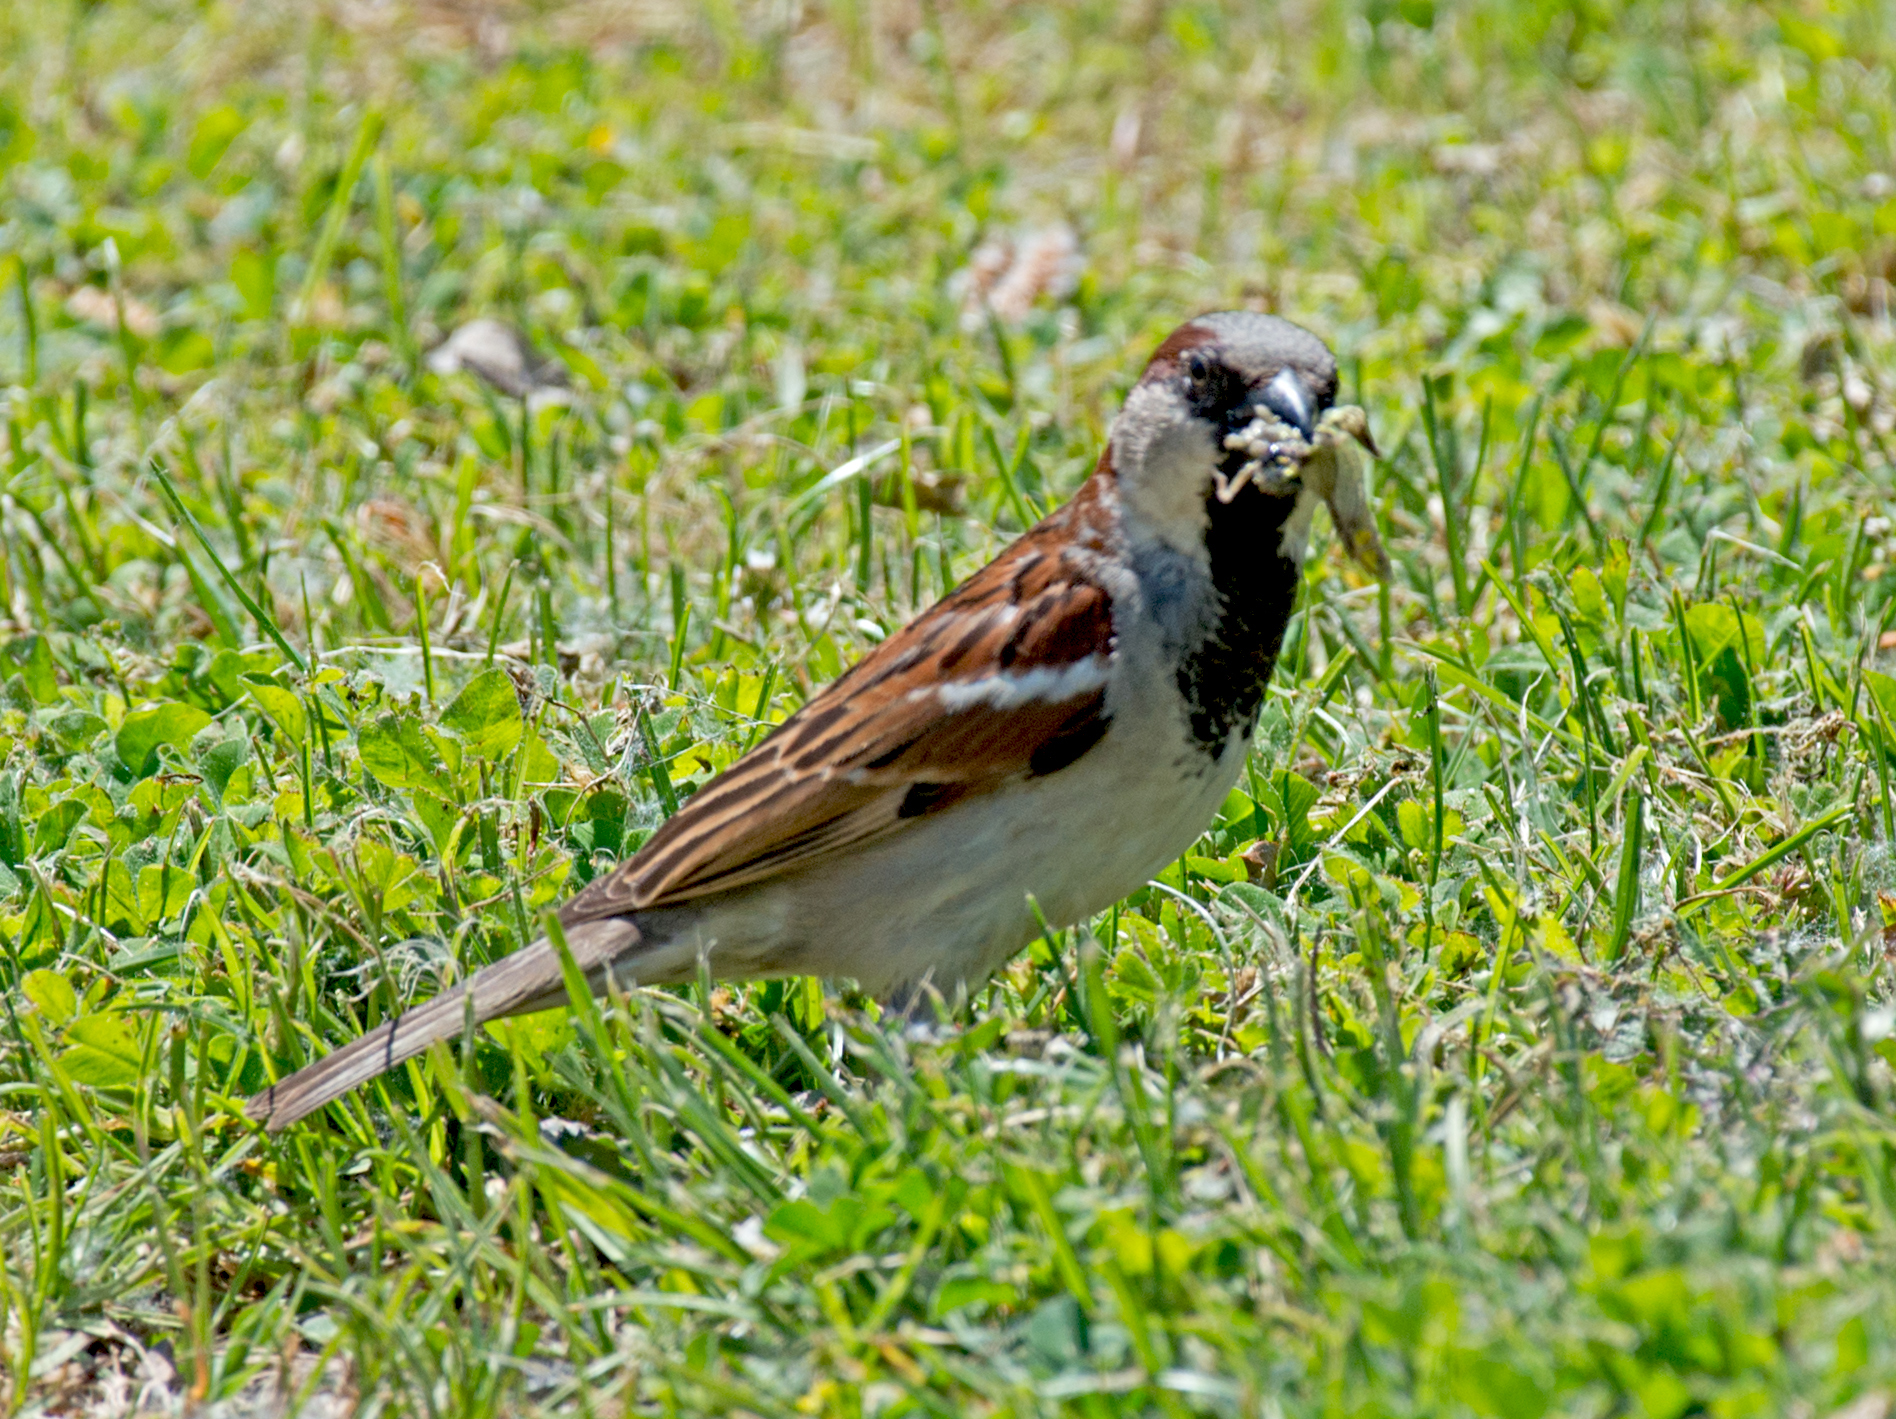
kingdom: Animalia
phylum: Chordata
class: Aves
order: Passeriformes
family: Passeridae
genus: Passer
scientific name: Passer domesticus
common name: House sparrow
